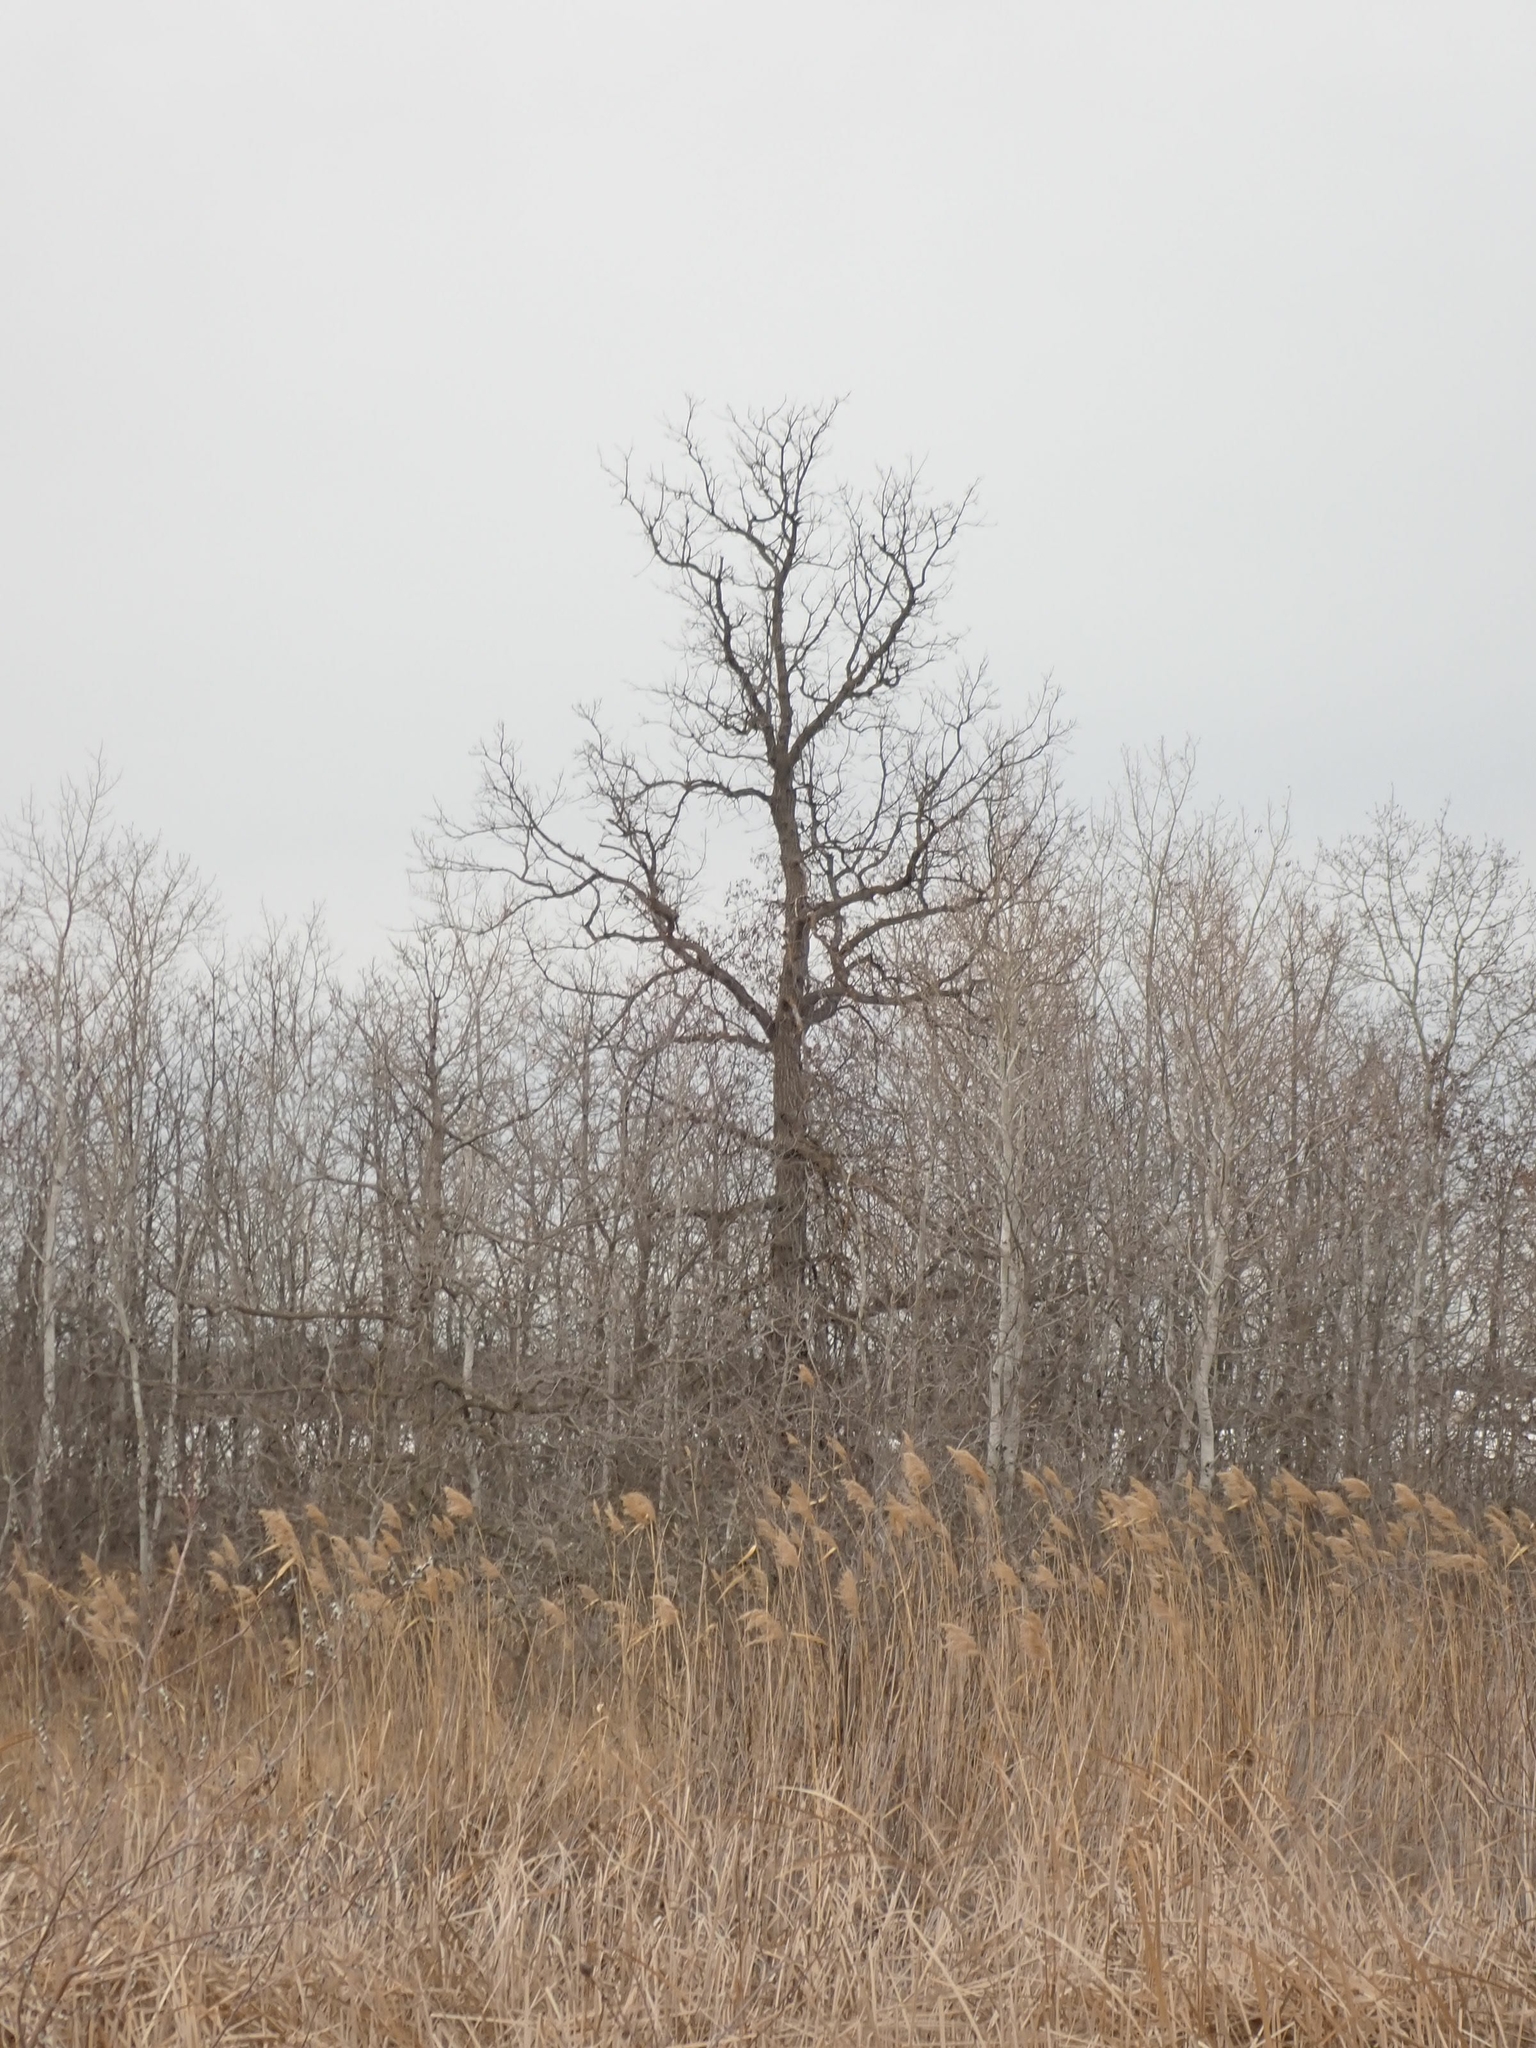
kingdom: Plantae
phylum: Tracheophyta
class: Magnoliopsida
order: Fagales
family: Fagaceae
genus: Quercus
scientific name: Quercus macrocarpa
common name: Bur oak
